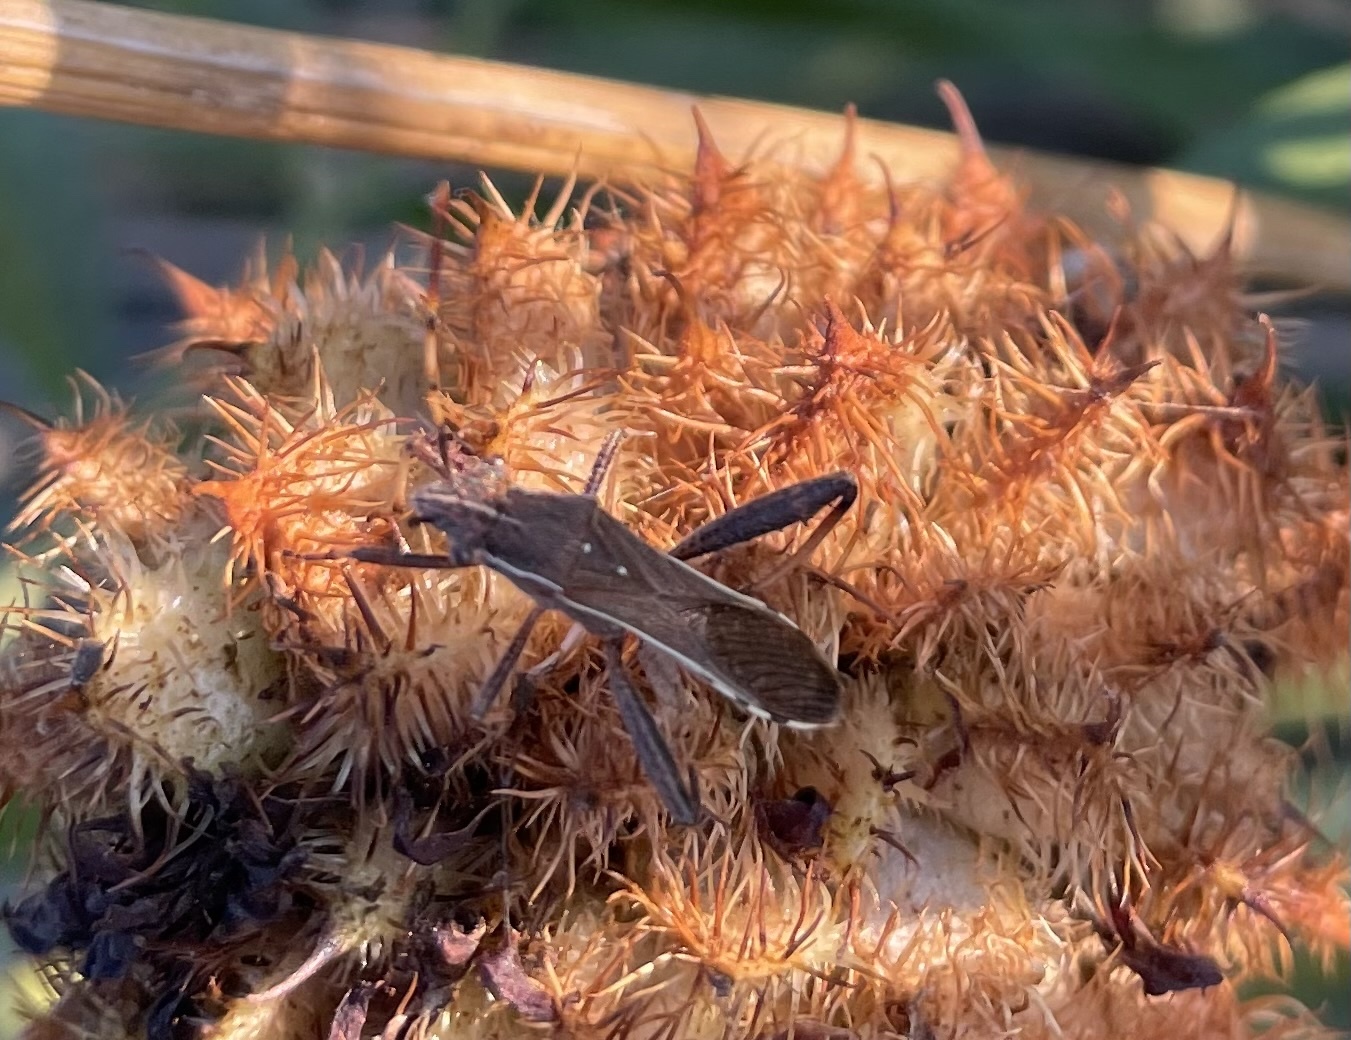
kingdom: Animalia
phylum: Arthropoda
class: Insecta
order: Hemiptera
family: Alydidae
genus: Camptopus
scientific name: Camptopus lateralis
